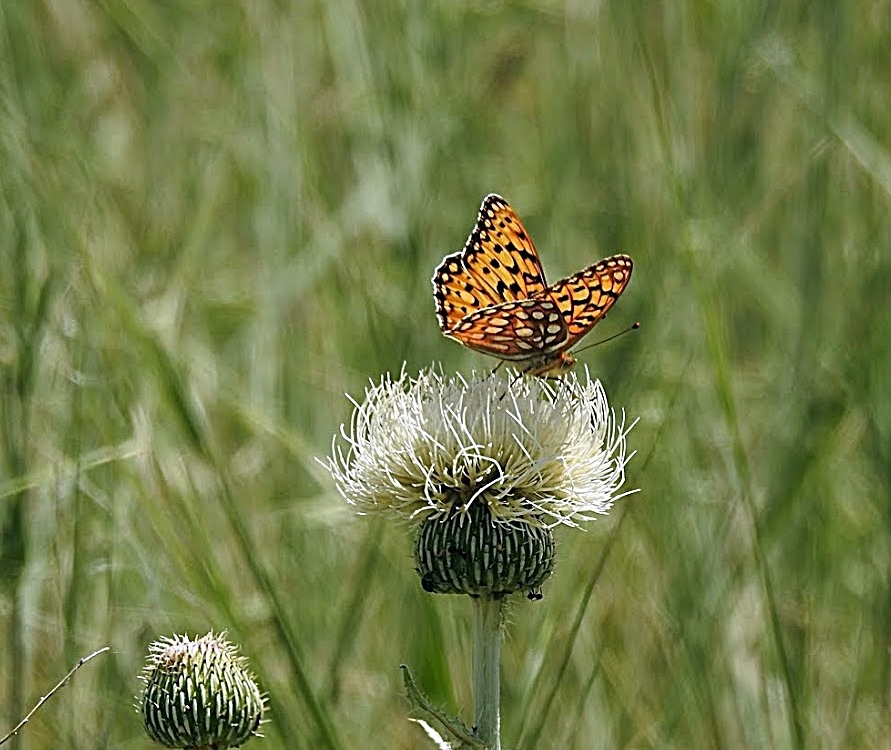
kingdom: Animalia
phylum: Arthropoda
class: Insecta
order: Lepidoptera
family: Nymphalidae
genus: Speyeria
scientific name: Speyeria edwardsii
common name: Edwards' fritillary
